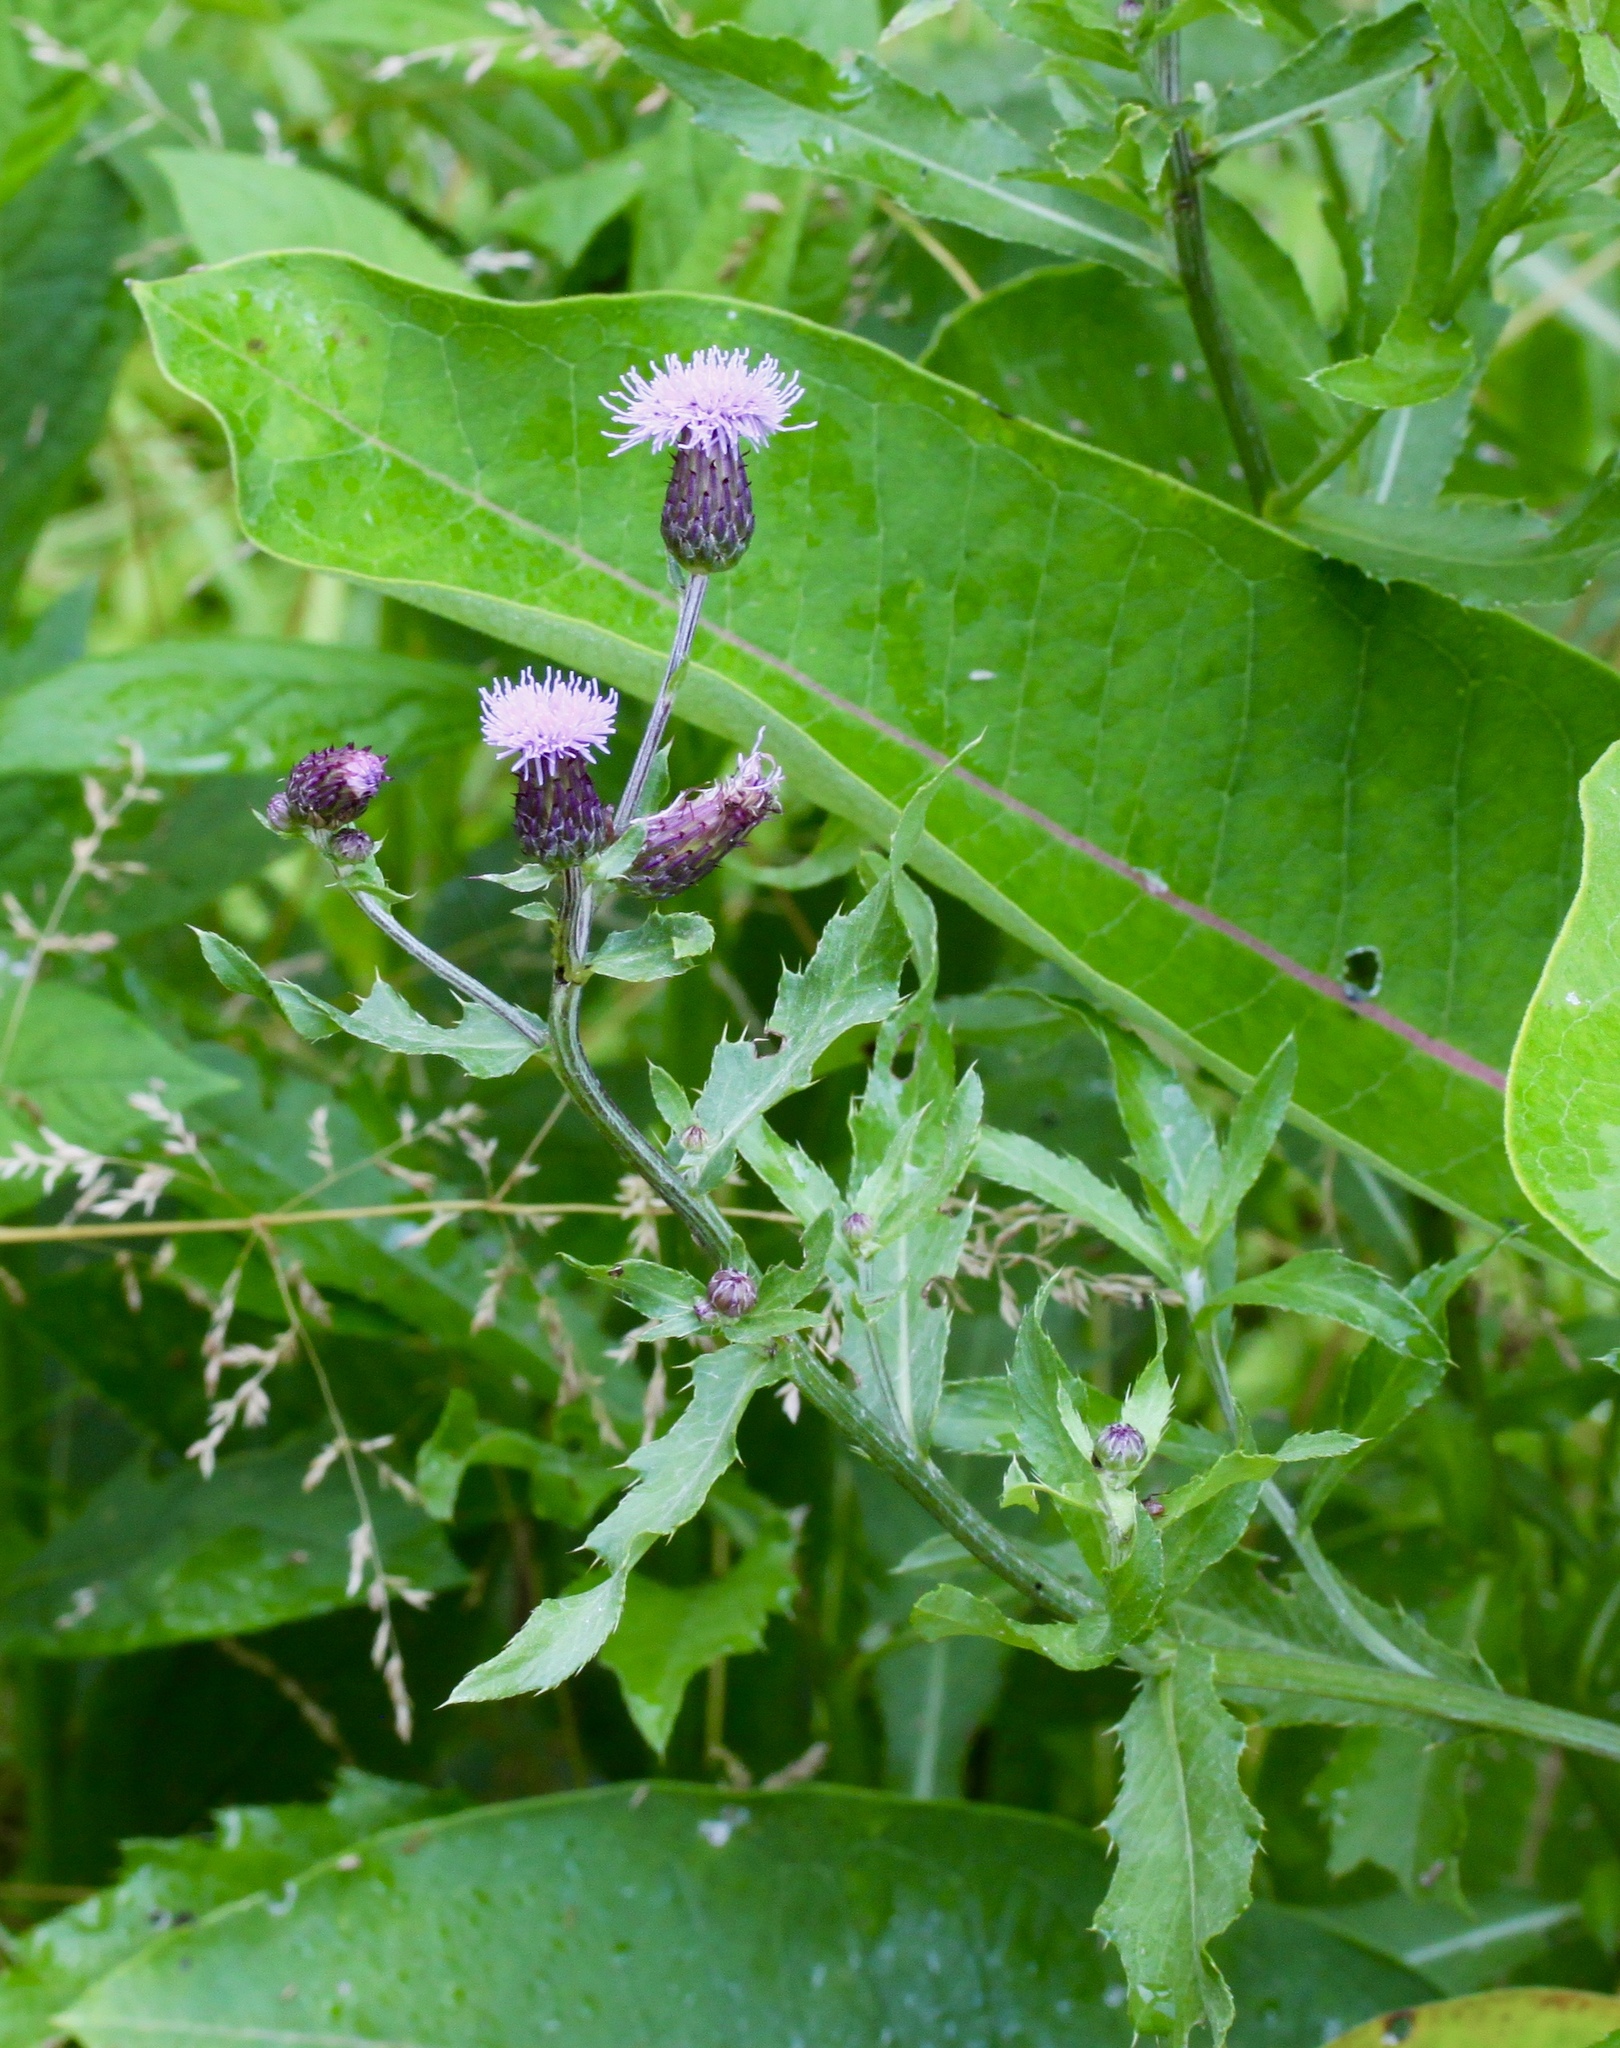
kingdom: Plantae
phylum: Tracheophyta
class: Magnoliopsida
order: Asterales
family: Asteraceae
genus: Cirsium
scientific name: Cirsium arvense
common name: Creeping thistle
